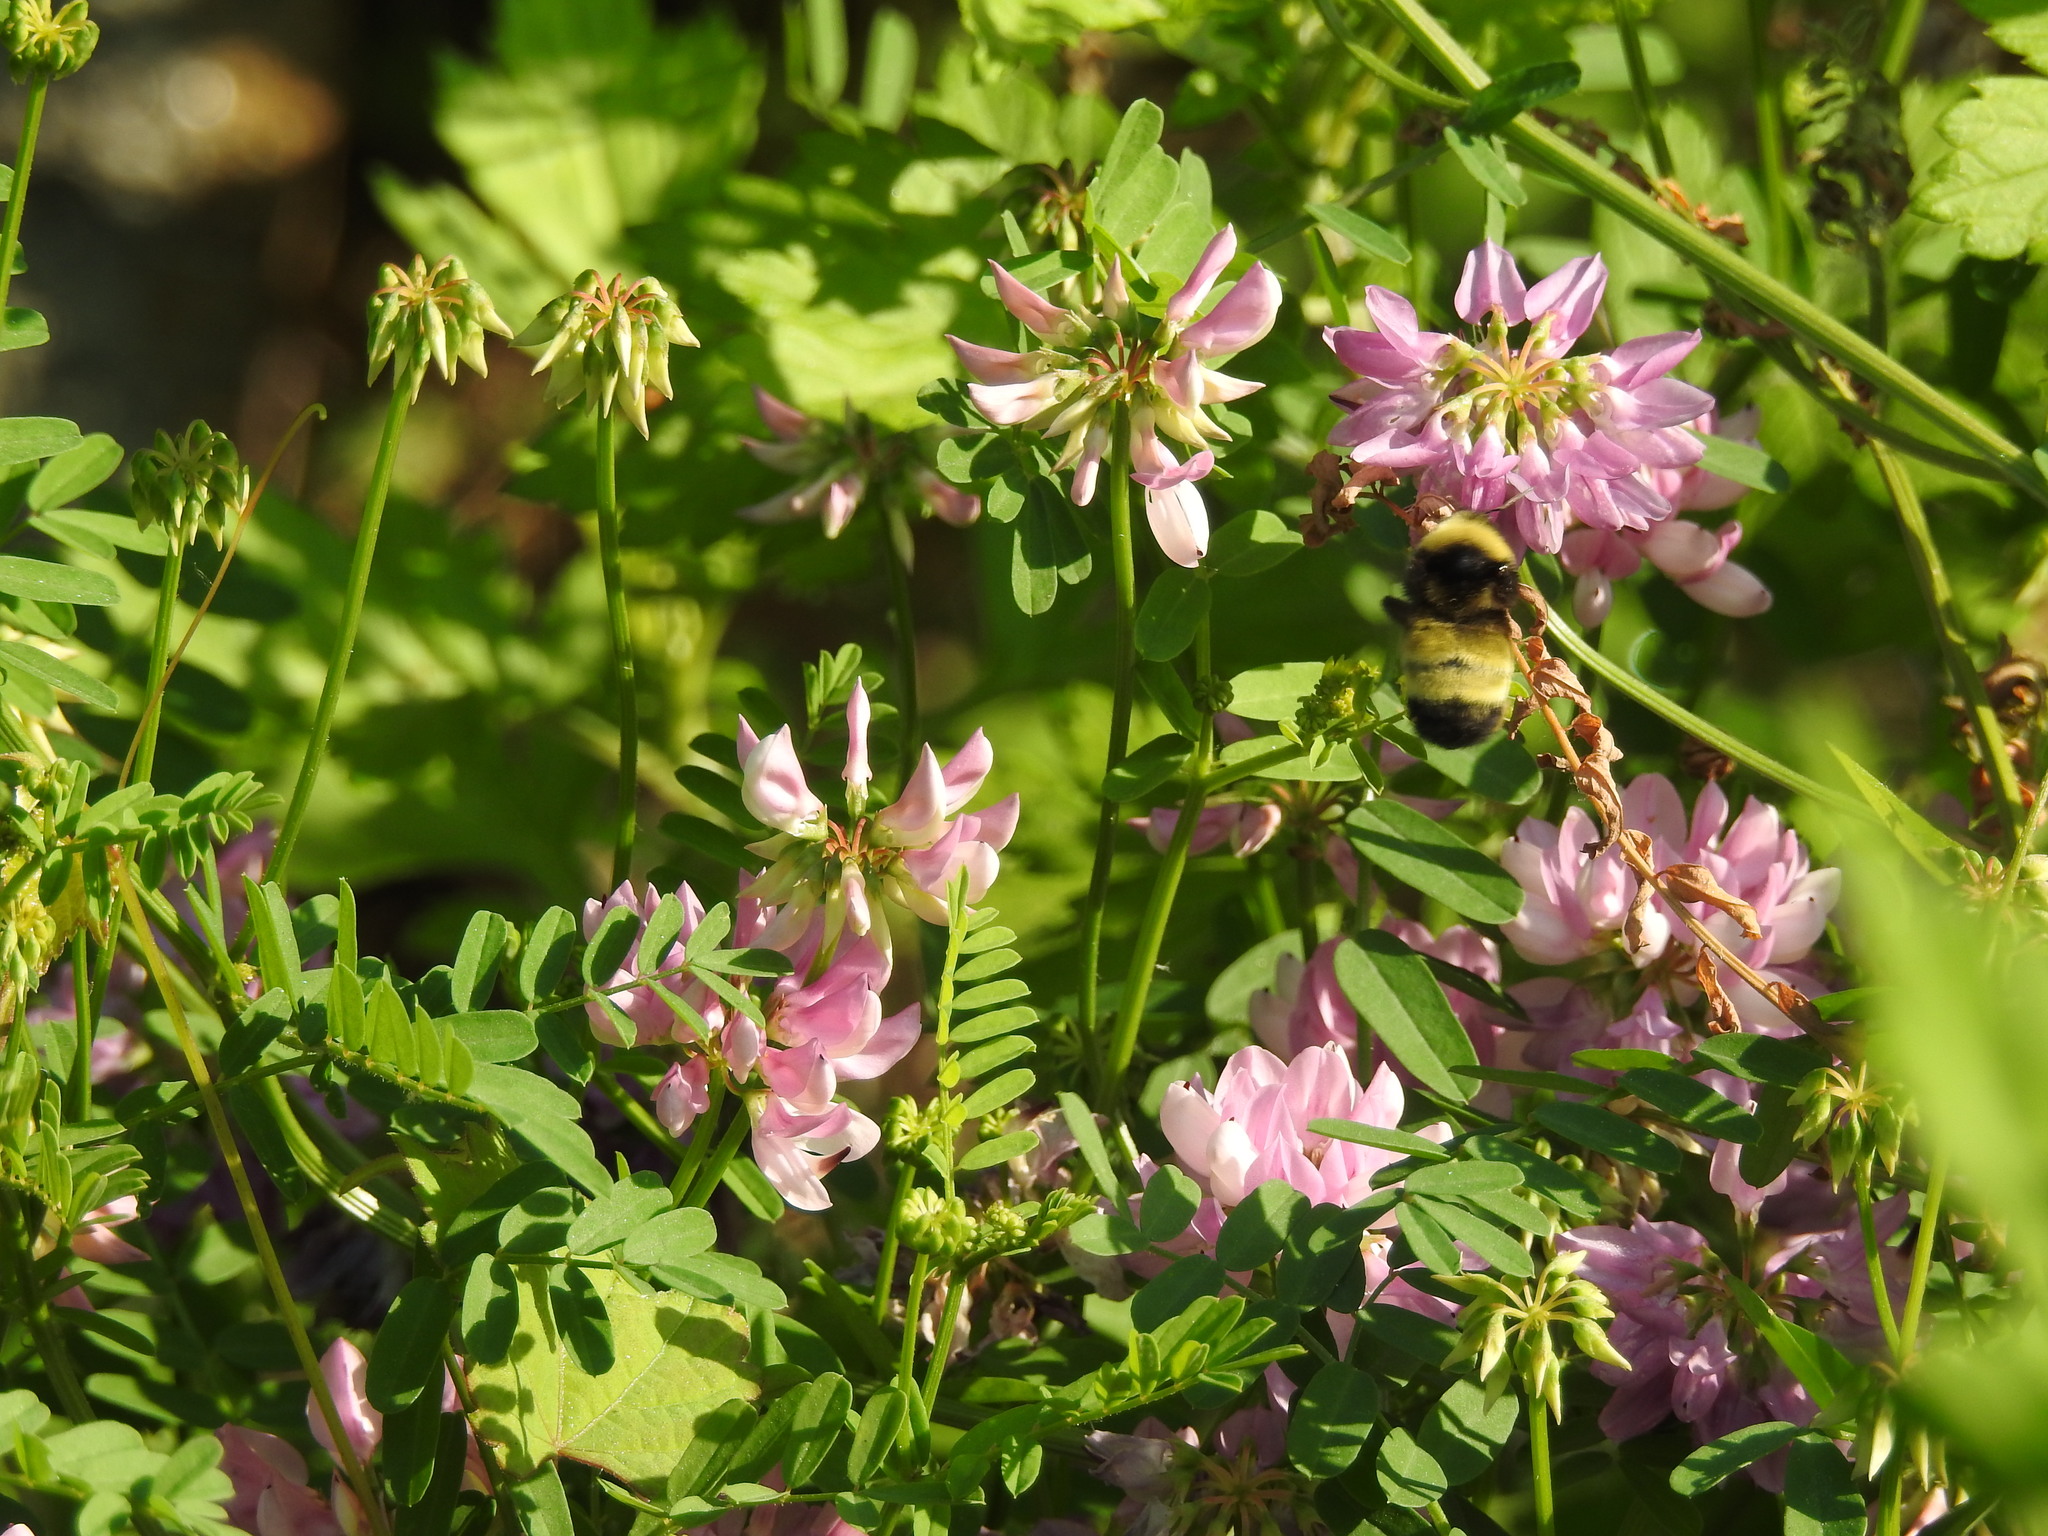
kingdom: Animalia
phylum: Arthropoda
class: Insecta
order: Hymenoptera
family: Apidae
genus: Bombus
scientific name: Bombus auricomus
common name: Black and gold bumble bee
